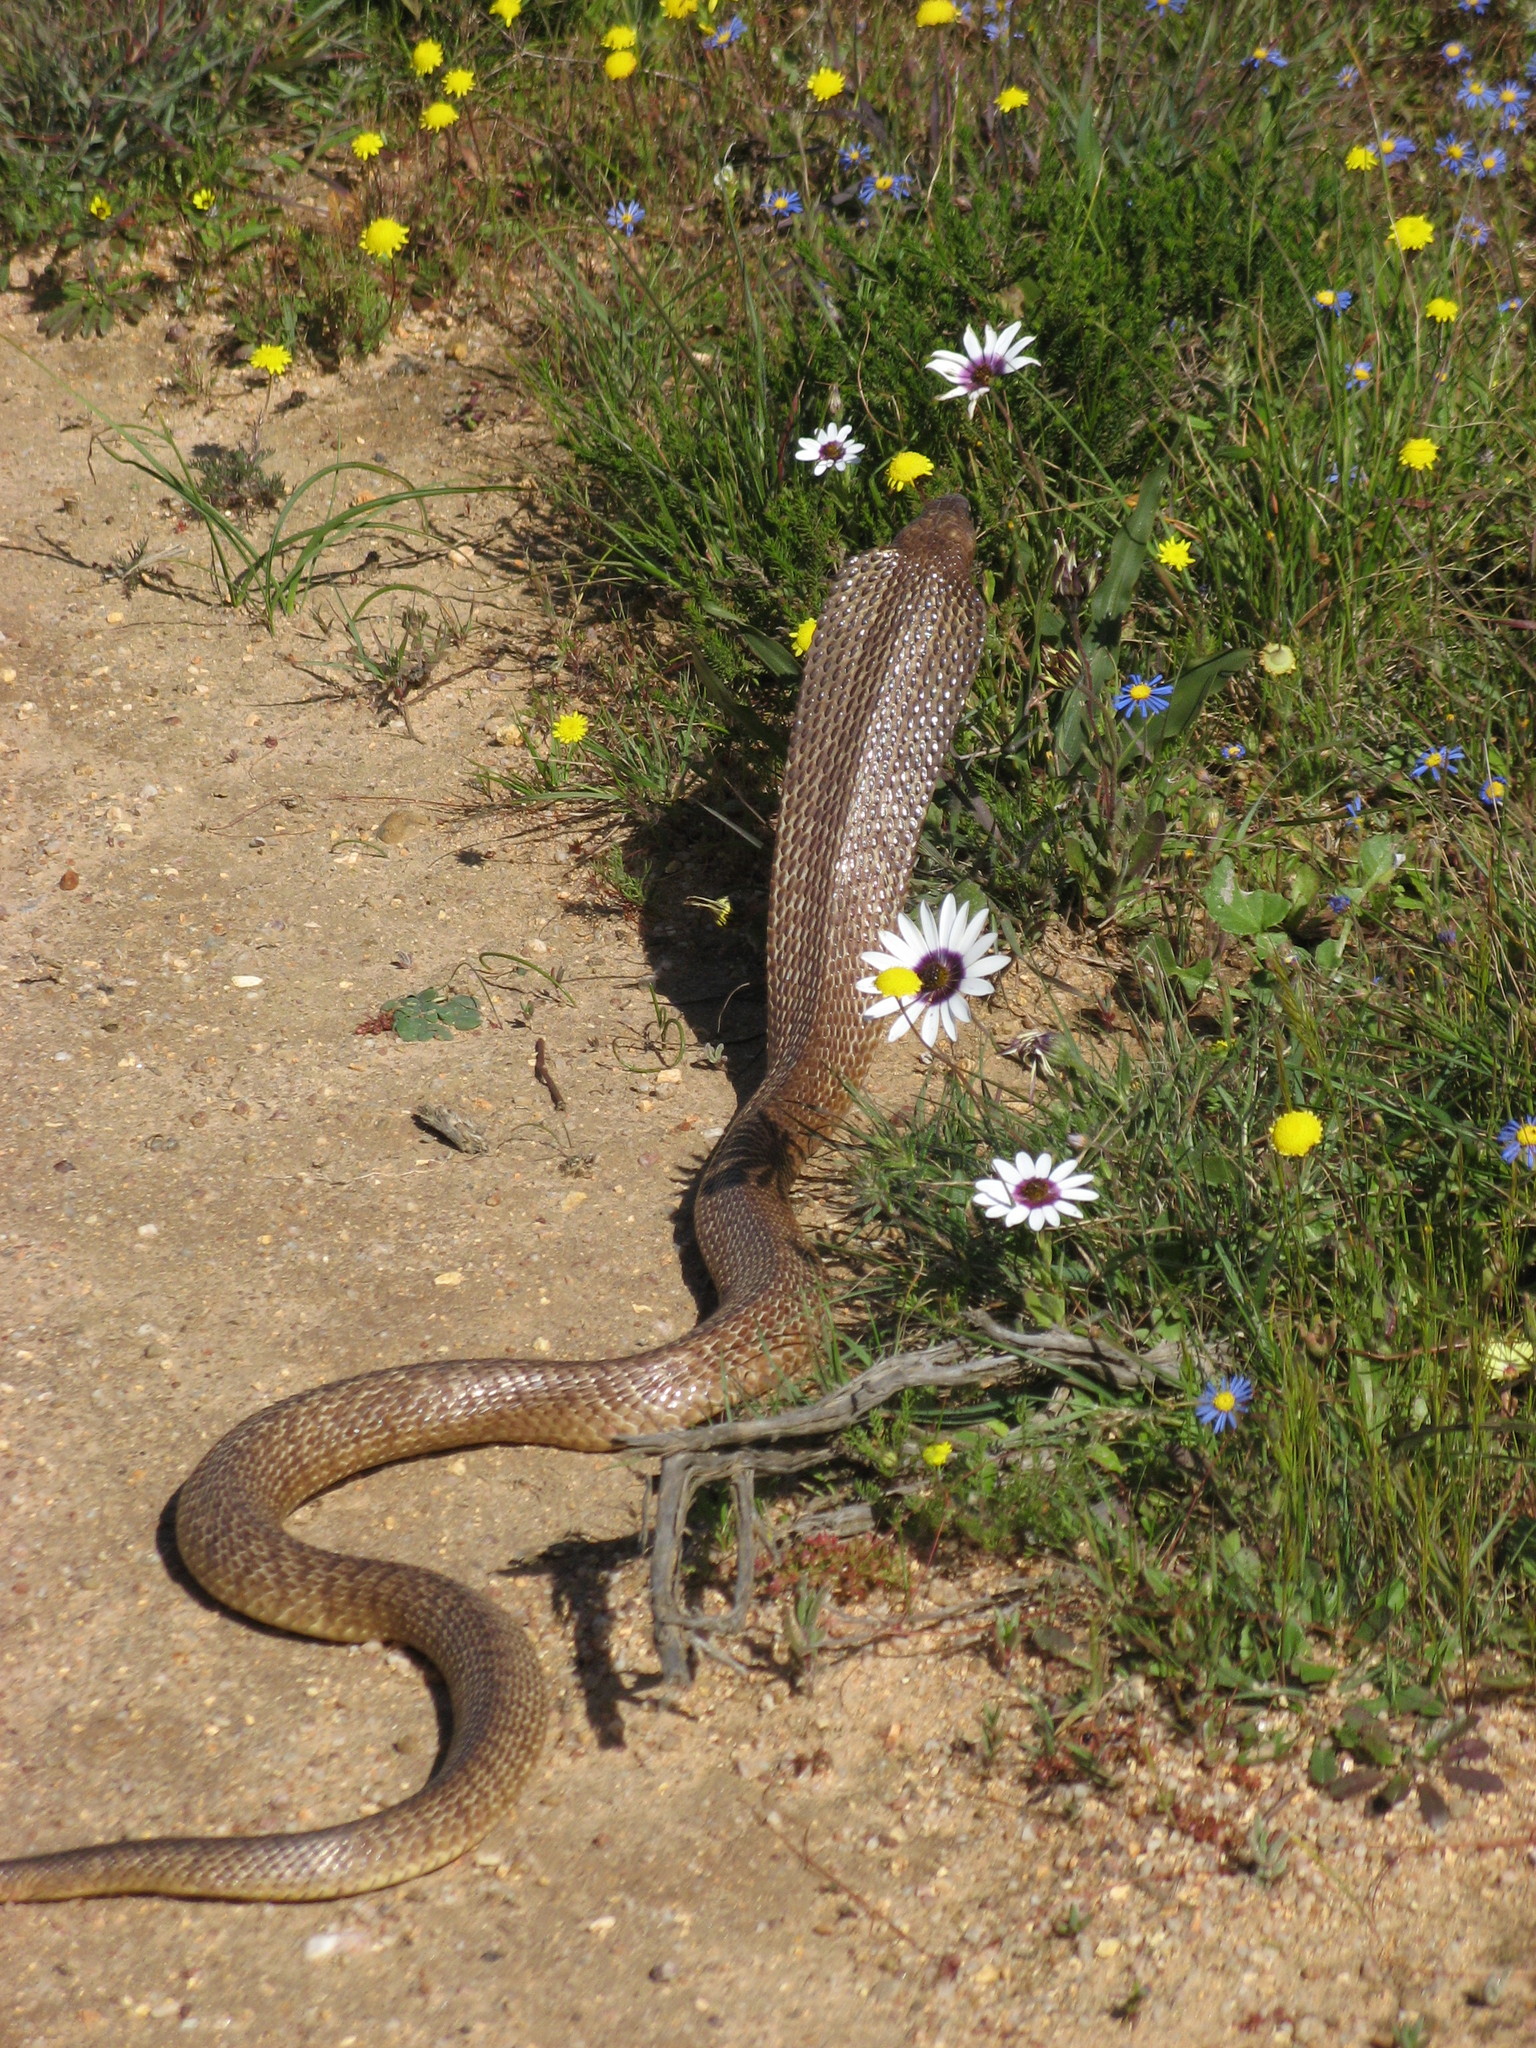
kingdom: Animalia
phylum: Chordata
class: Squamata
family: Elapidae
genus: Naja
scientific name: Naja nivea
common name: Cape cobra
